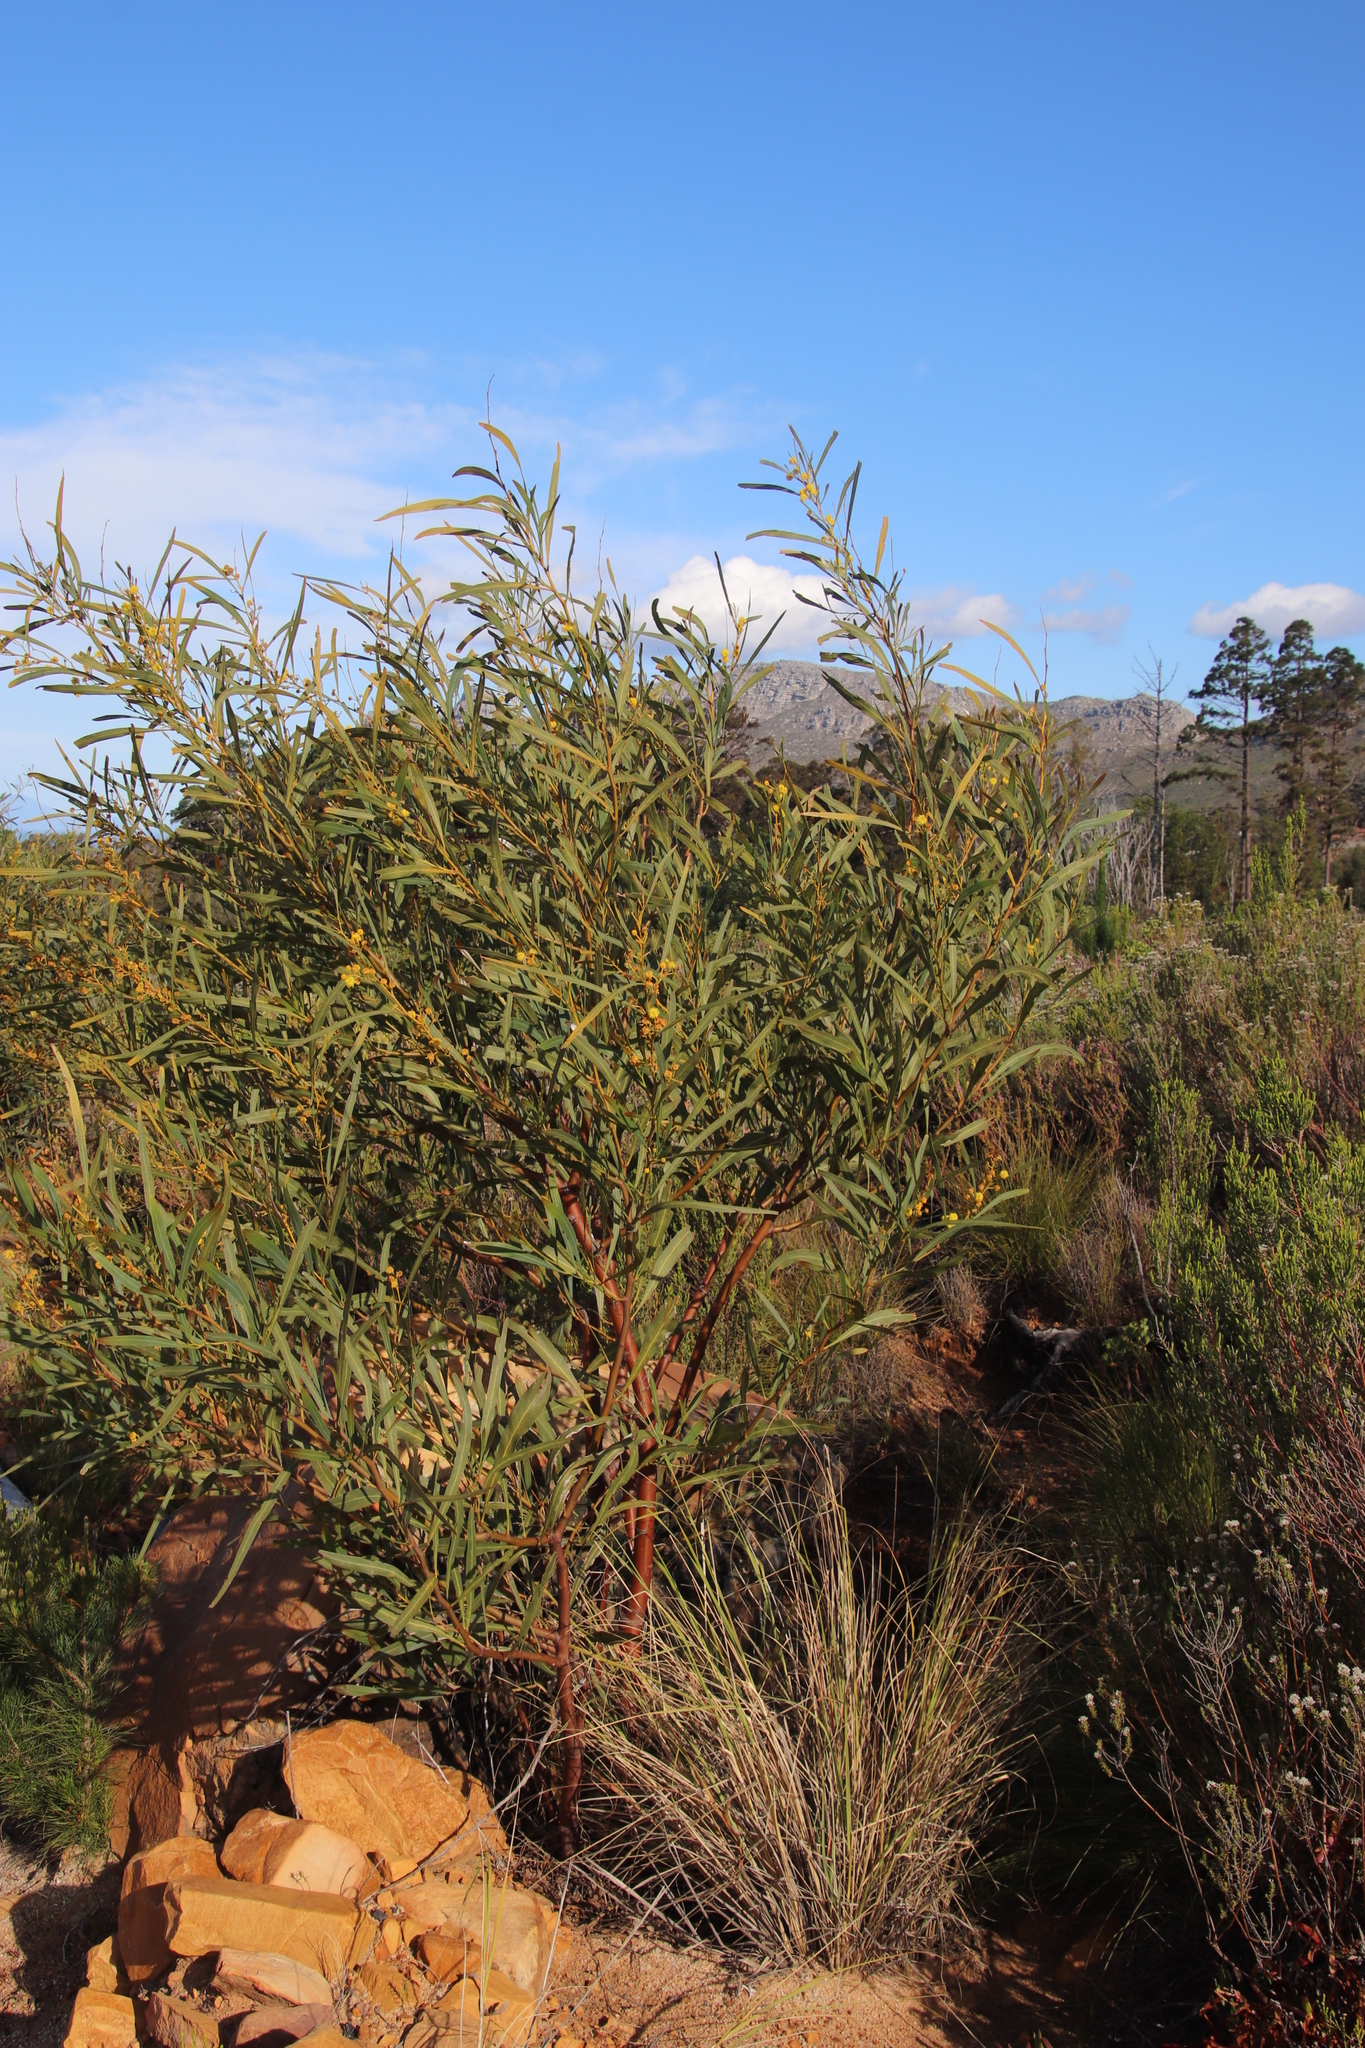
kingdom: Plantae
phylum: Tracheophyta
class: Magnoliopsida
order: Fabales
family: Fabaceae
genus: Acacia
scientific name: Acacia saligna
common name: Orange wattle
